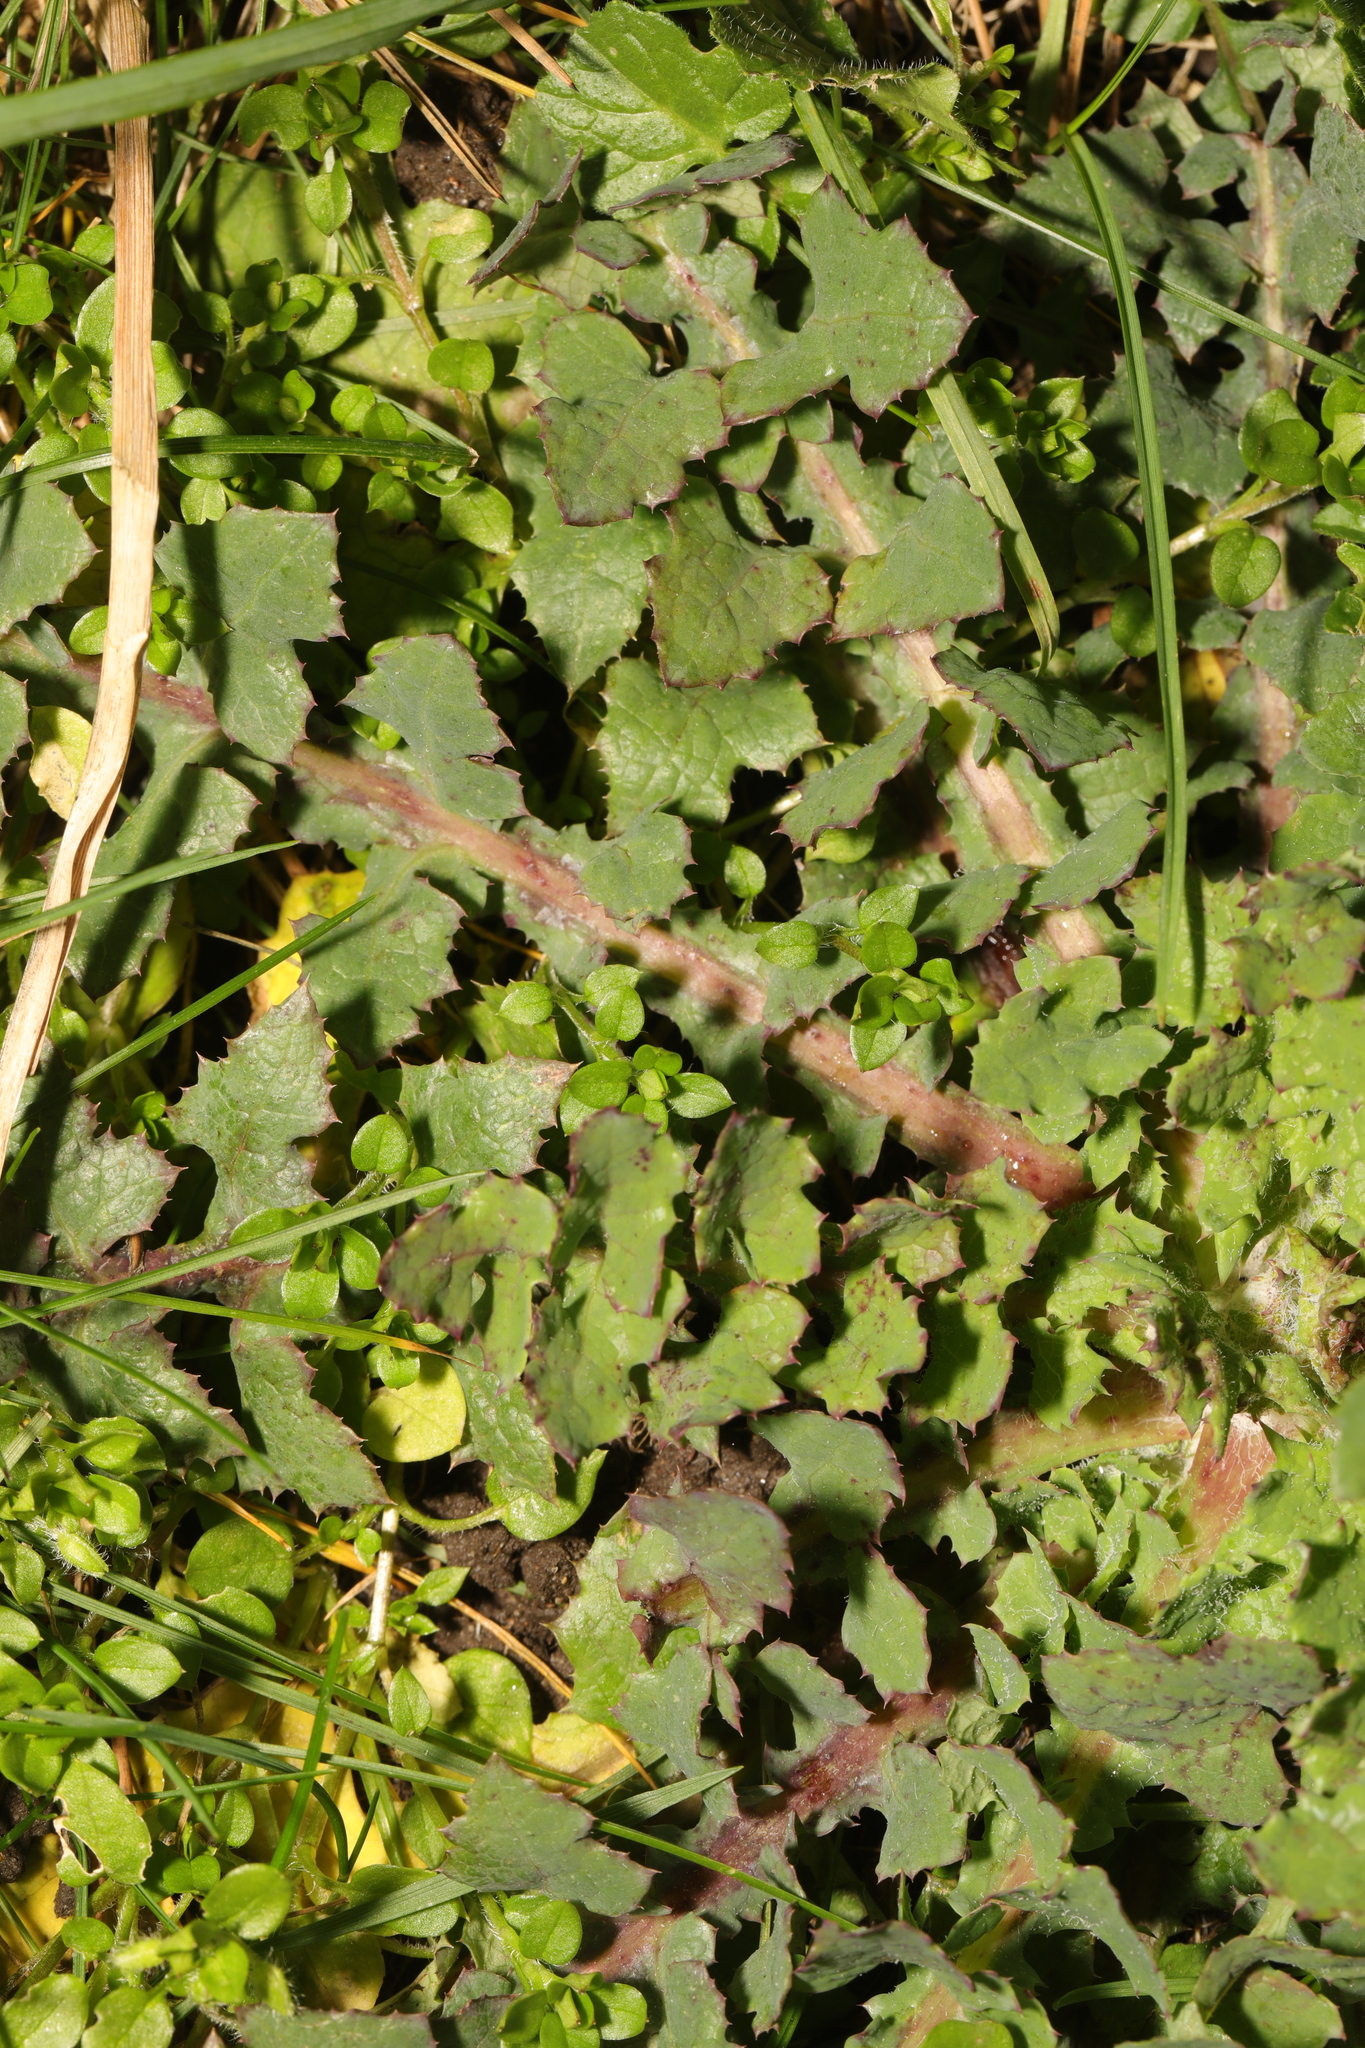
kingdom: Plantae
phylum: Tracheophyta
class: Magnoliopsida
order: Asterales
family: Asteraceae
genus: Sonchus
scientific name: Sonchus oleraceus
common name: Common sowthistle
